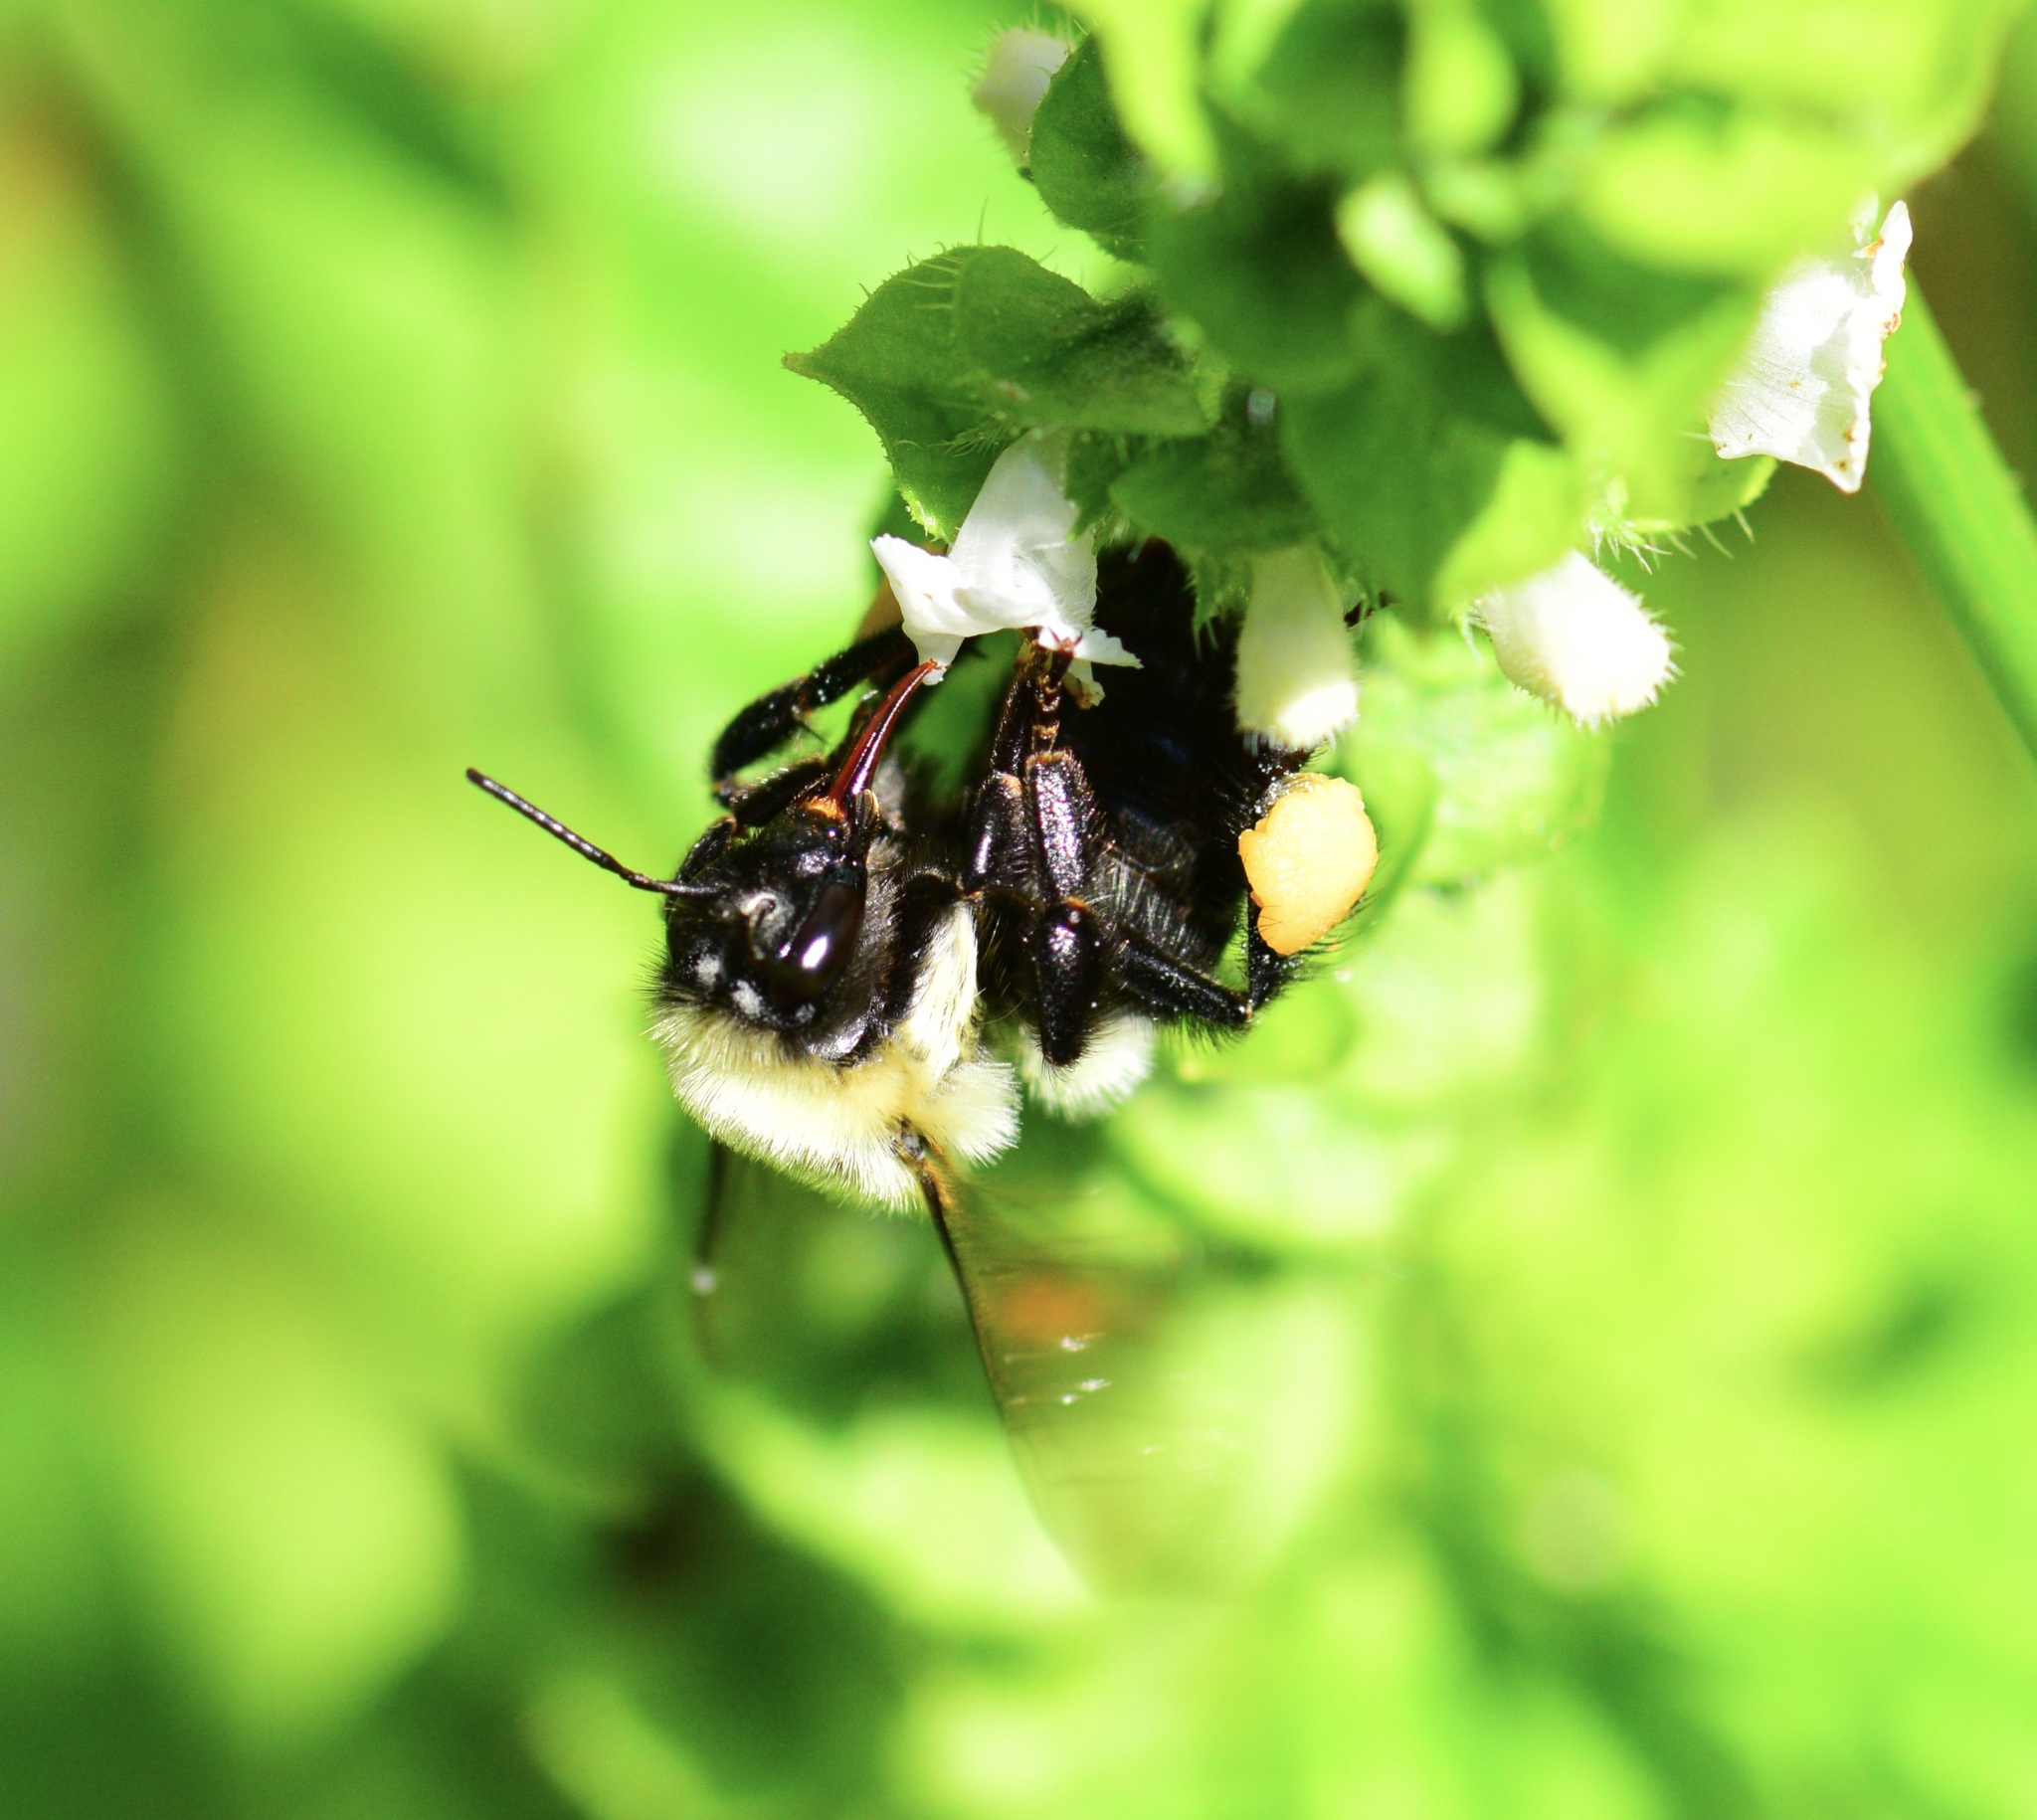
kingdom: Animalia
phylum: Arthropoda
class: Insecta
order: Hymenoptera
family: Apidae
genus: Bombus
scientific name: Bombus impatiens
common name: Common eastern bumble bee
